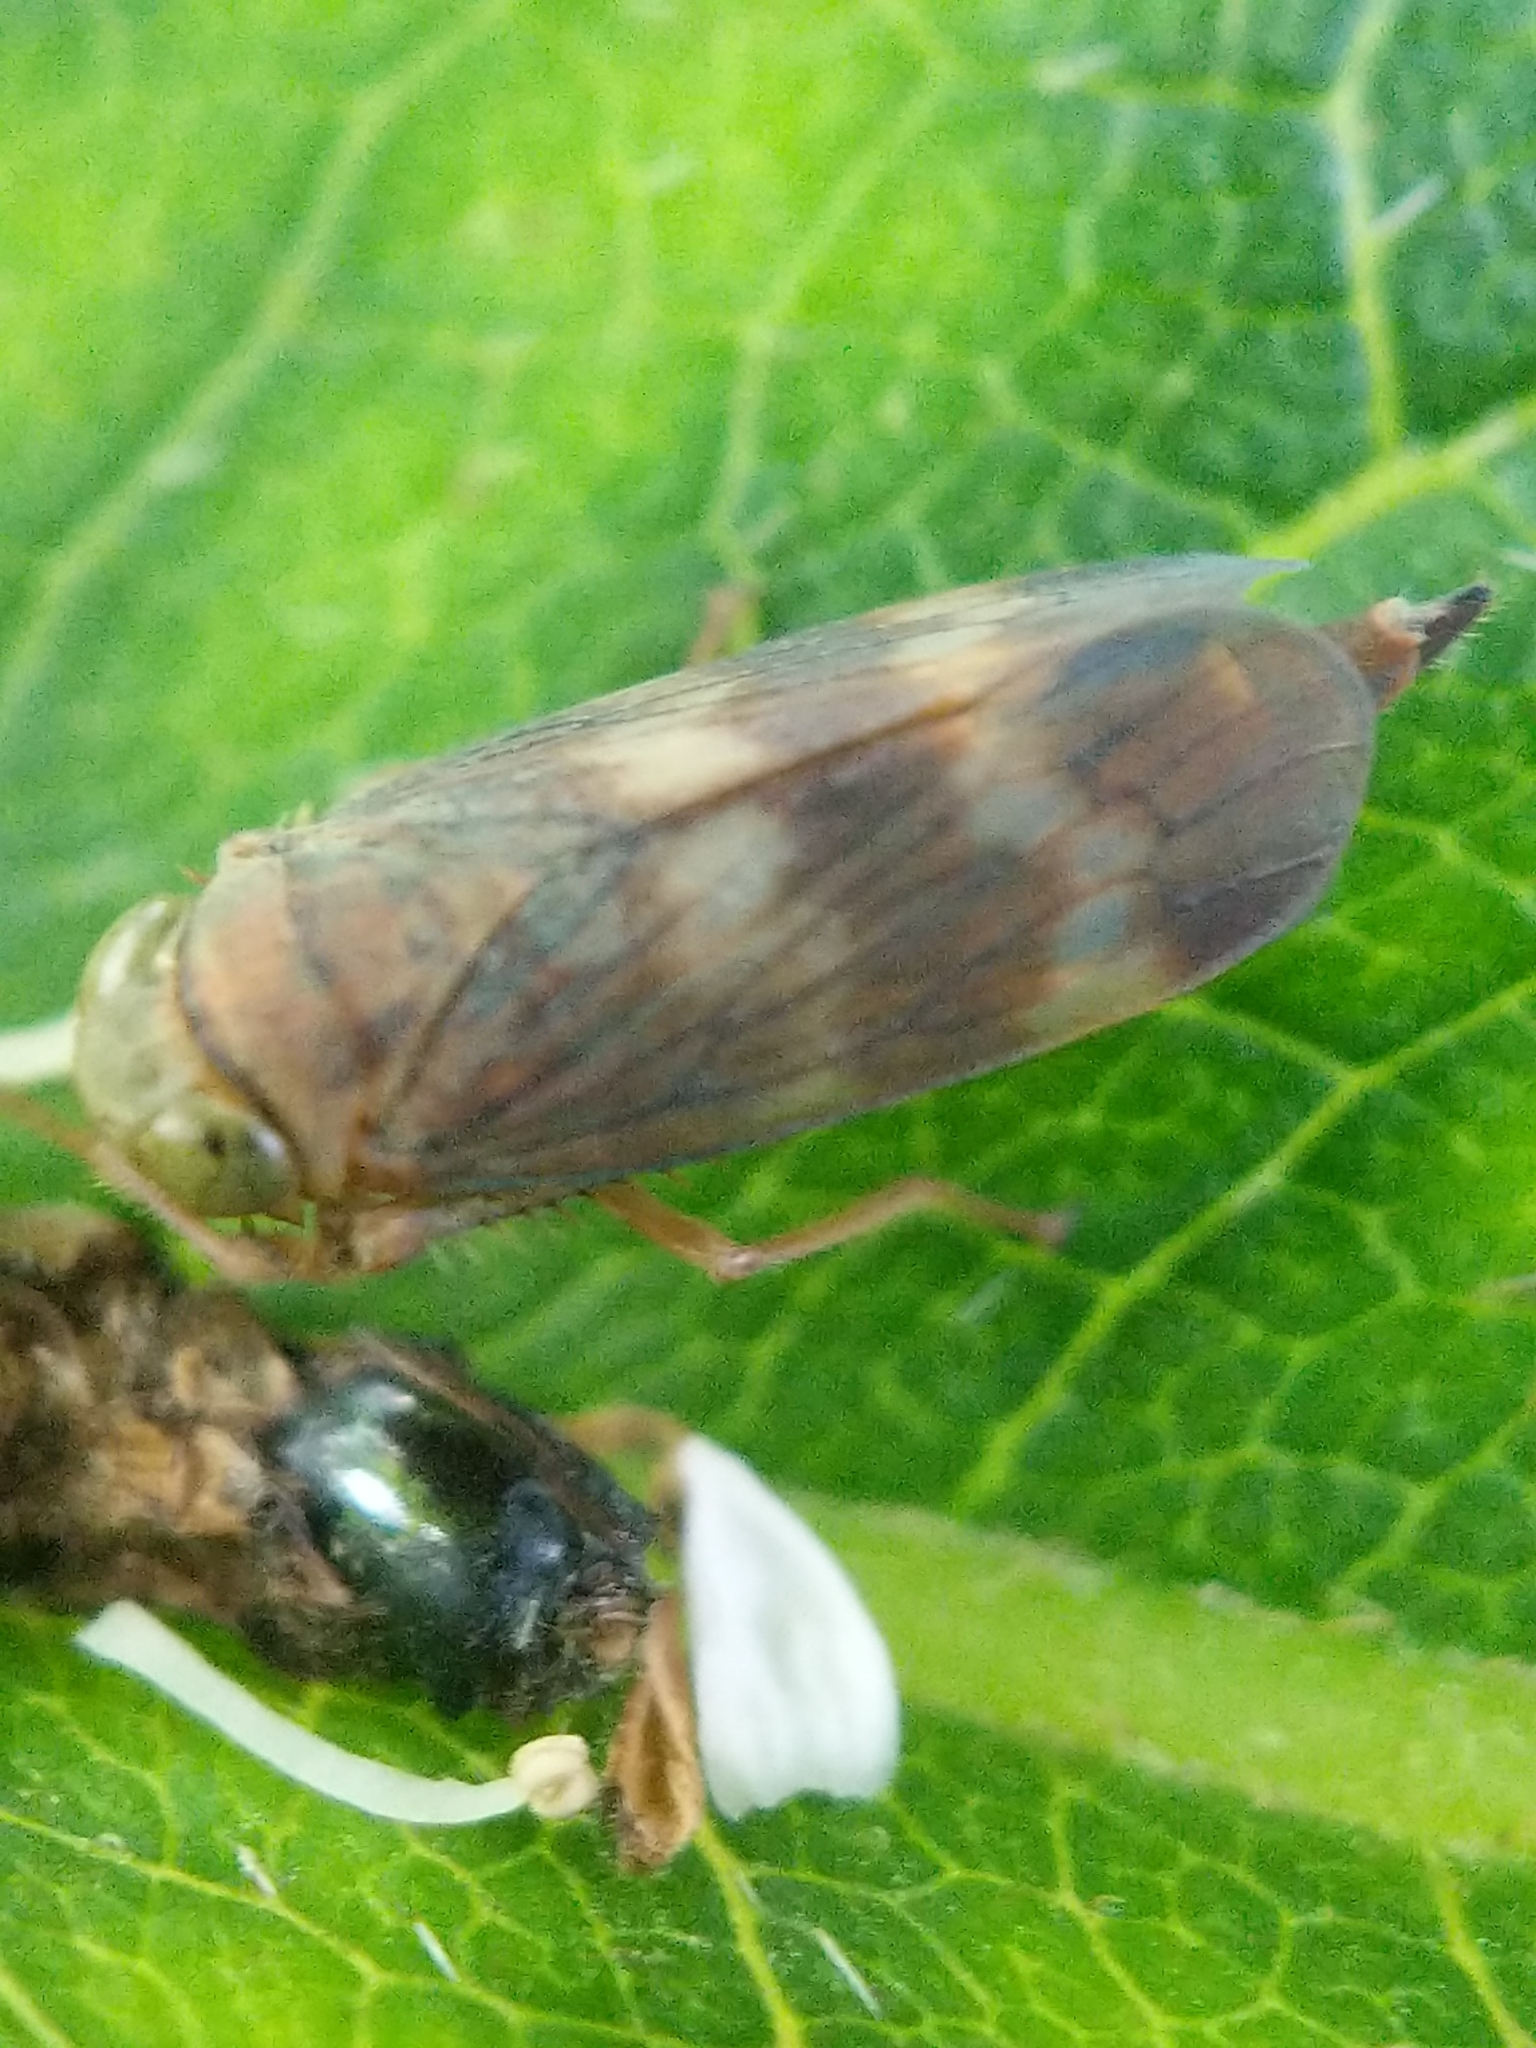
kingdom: Animalia
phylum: Arthropoda
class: Insecta
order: Hemiptera
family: Cicadellidae
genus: Jikradia
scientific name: Jikradia olitoria
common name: Coppery leafhopper
